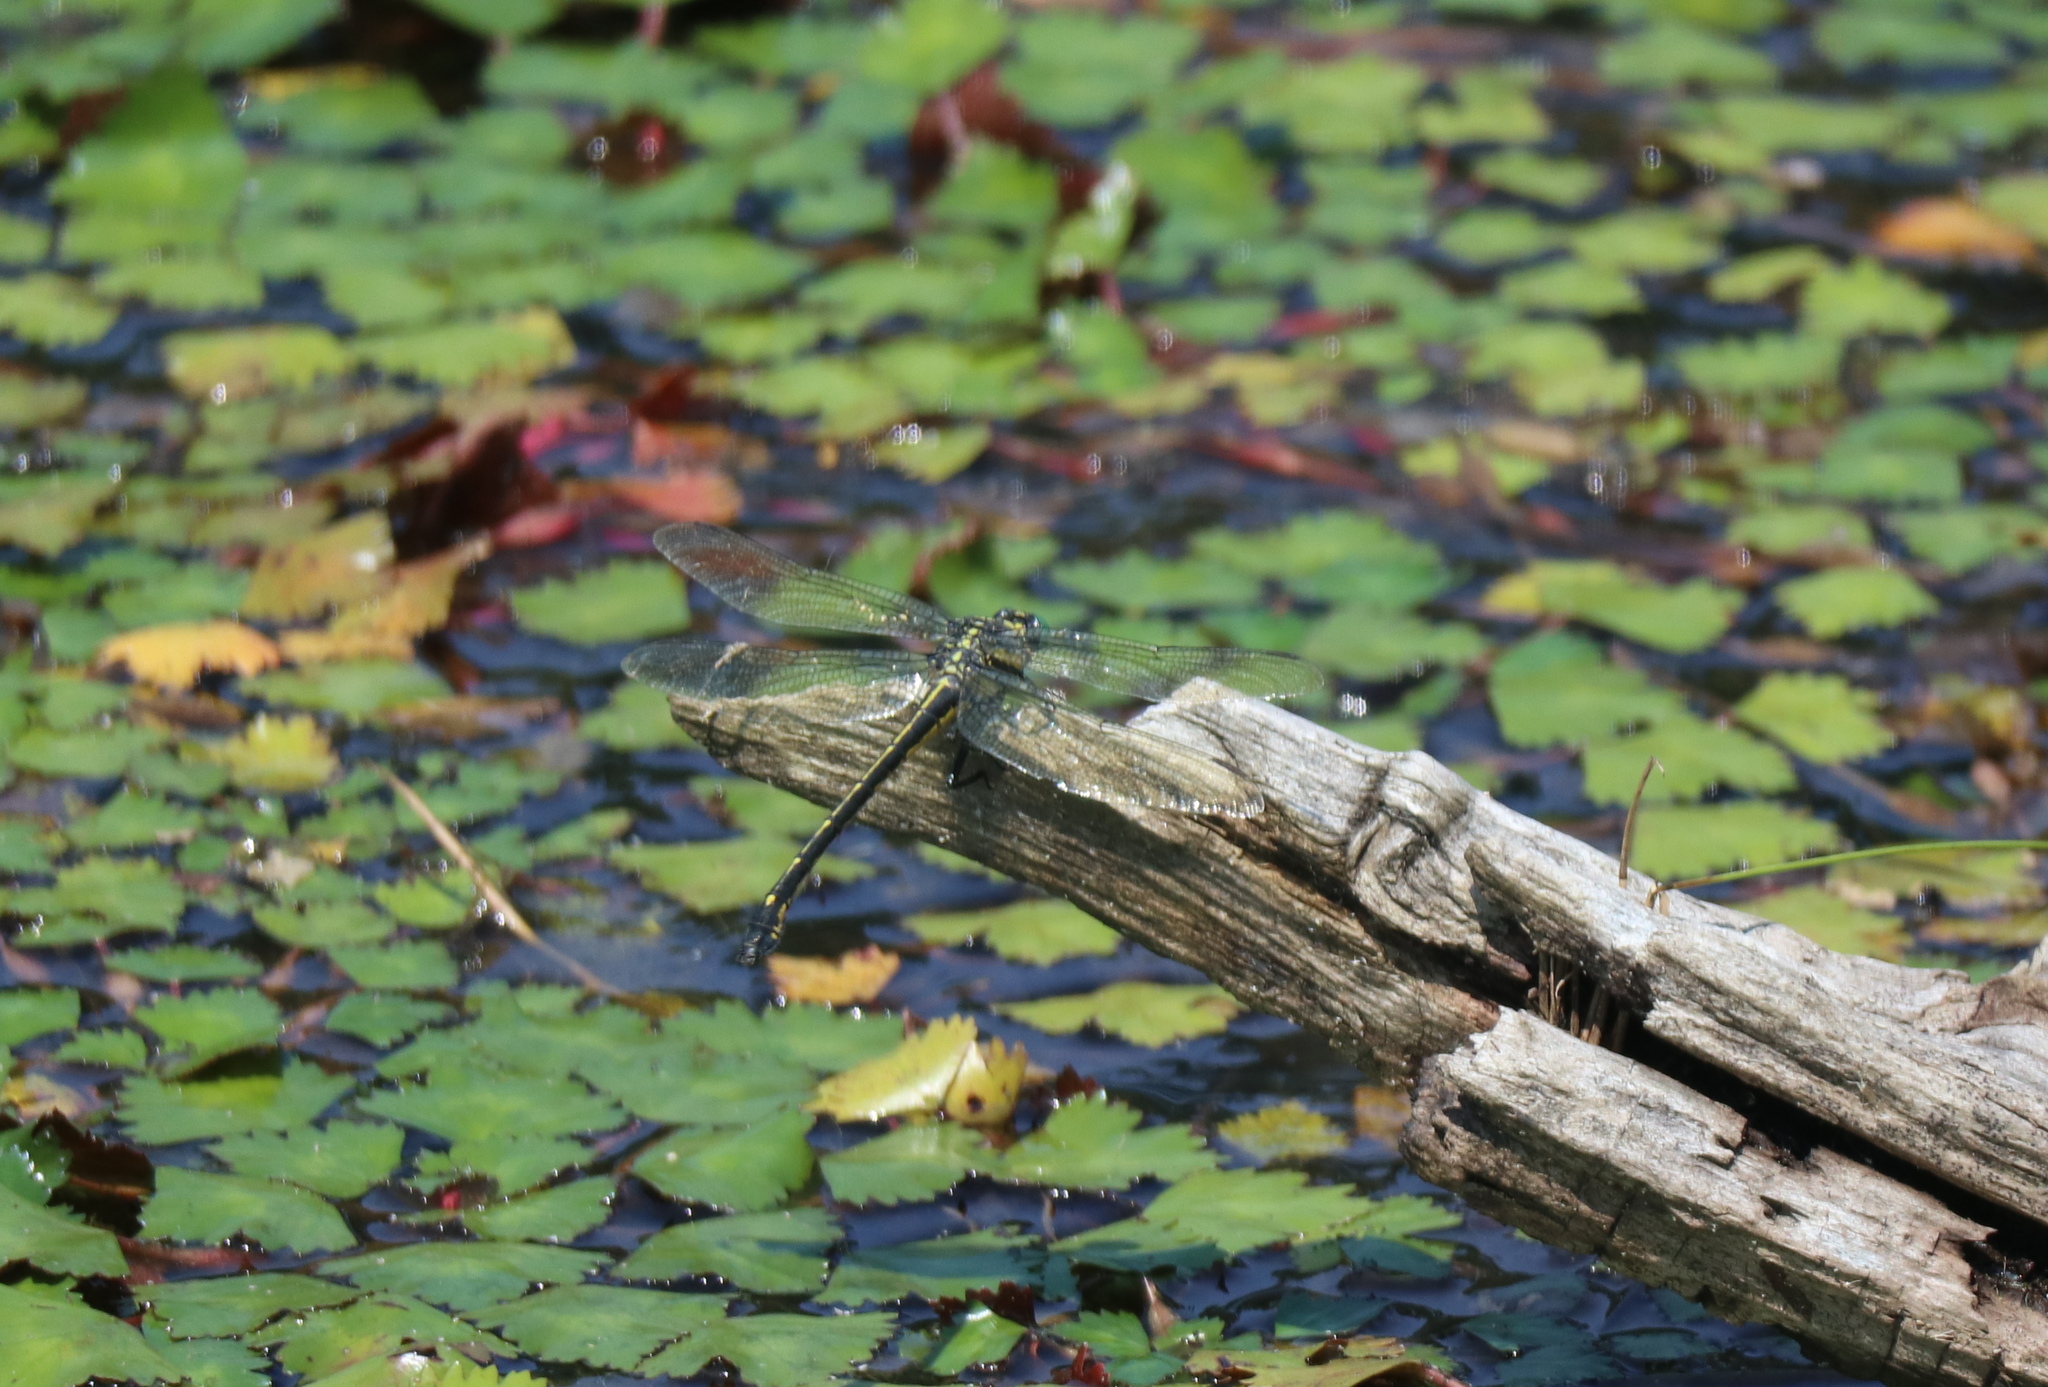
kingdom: Animalia
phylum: Arthropoda
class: Insecta
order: Odonata
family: Gomphidae
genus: Hagenius
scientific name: Hagenius brevistylus
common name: Dragonhunter
